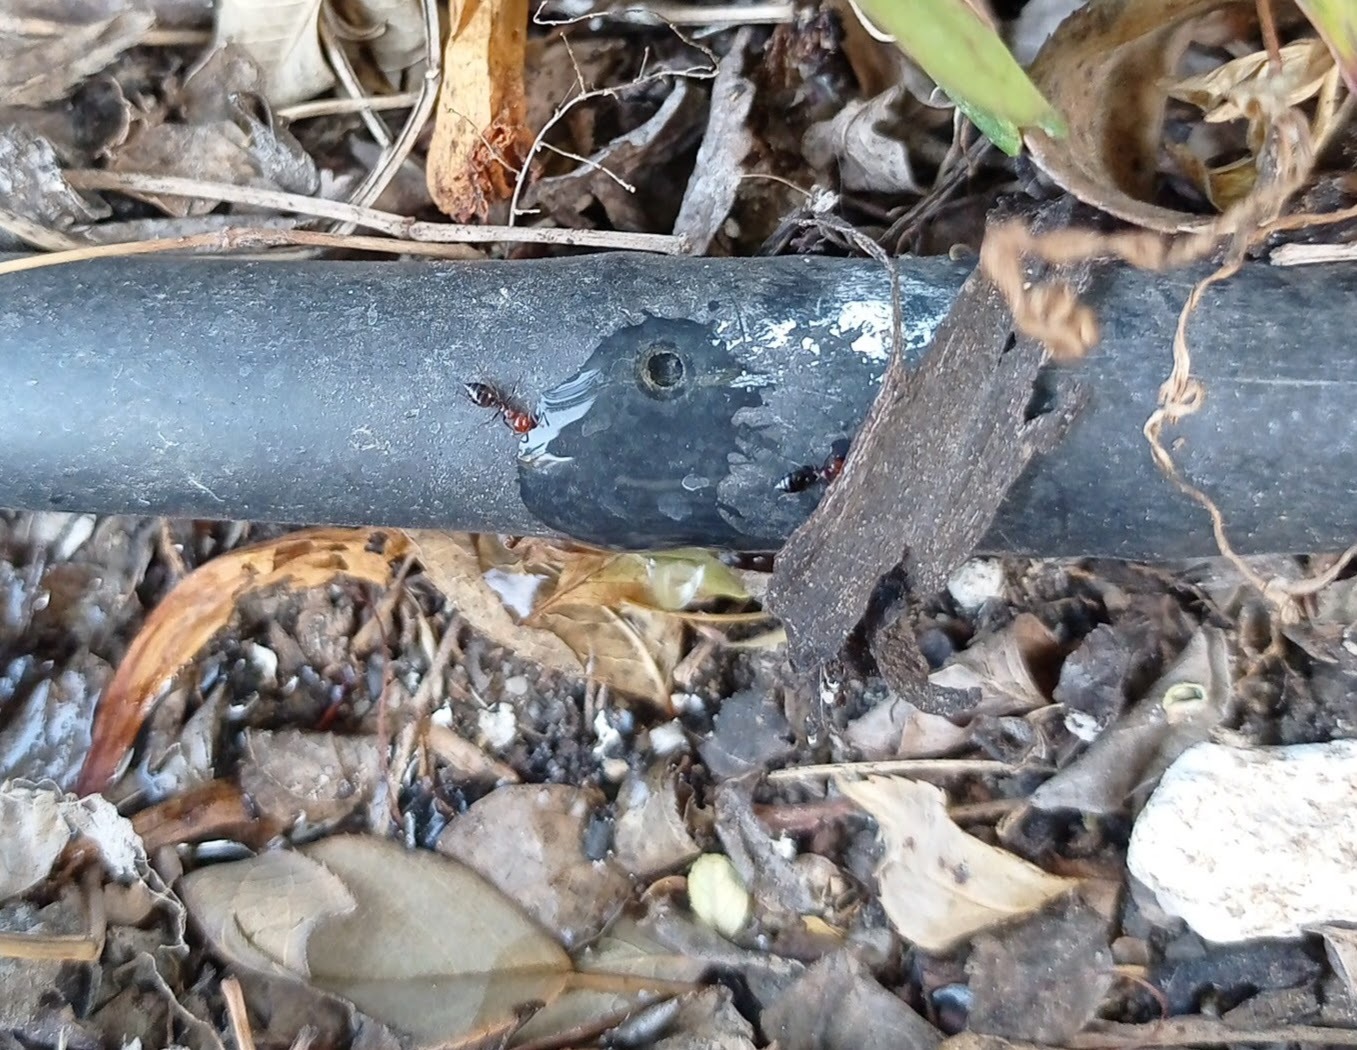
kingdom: Animalia
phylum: Arthropoda
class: Insecta
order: Hymenoptera
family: Formicidae
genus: Crematogaster
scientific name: Crematogaster scutellaris
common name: Fourmi du liège
